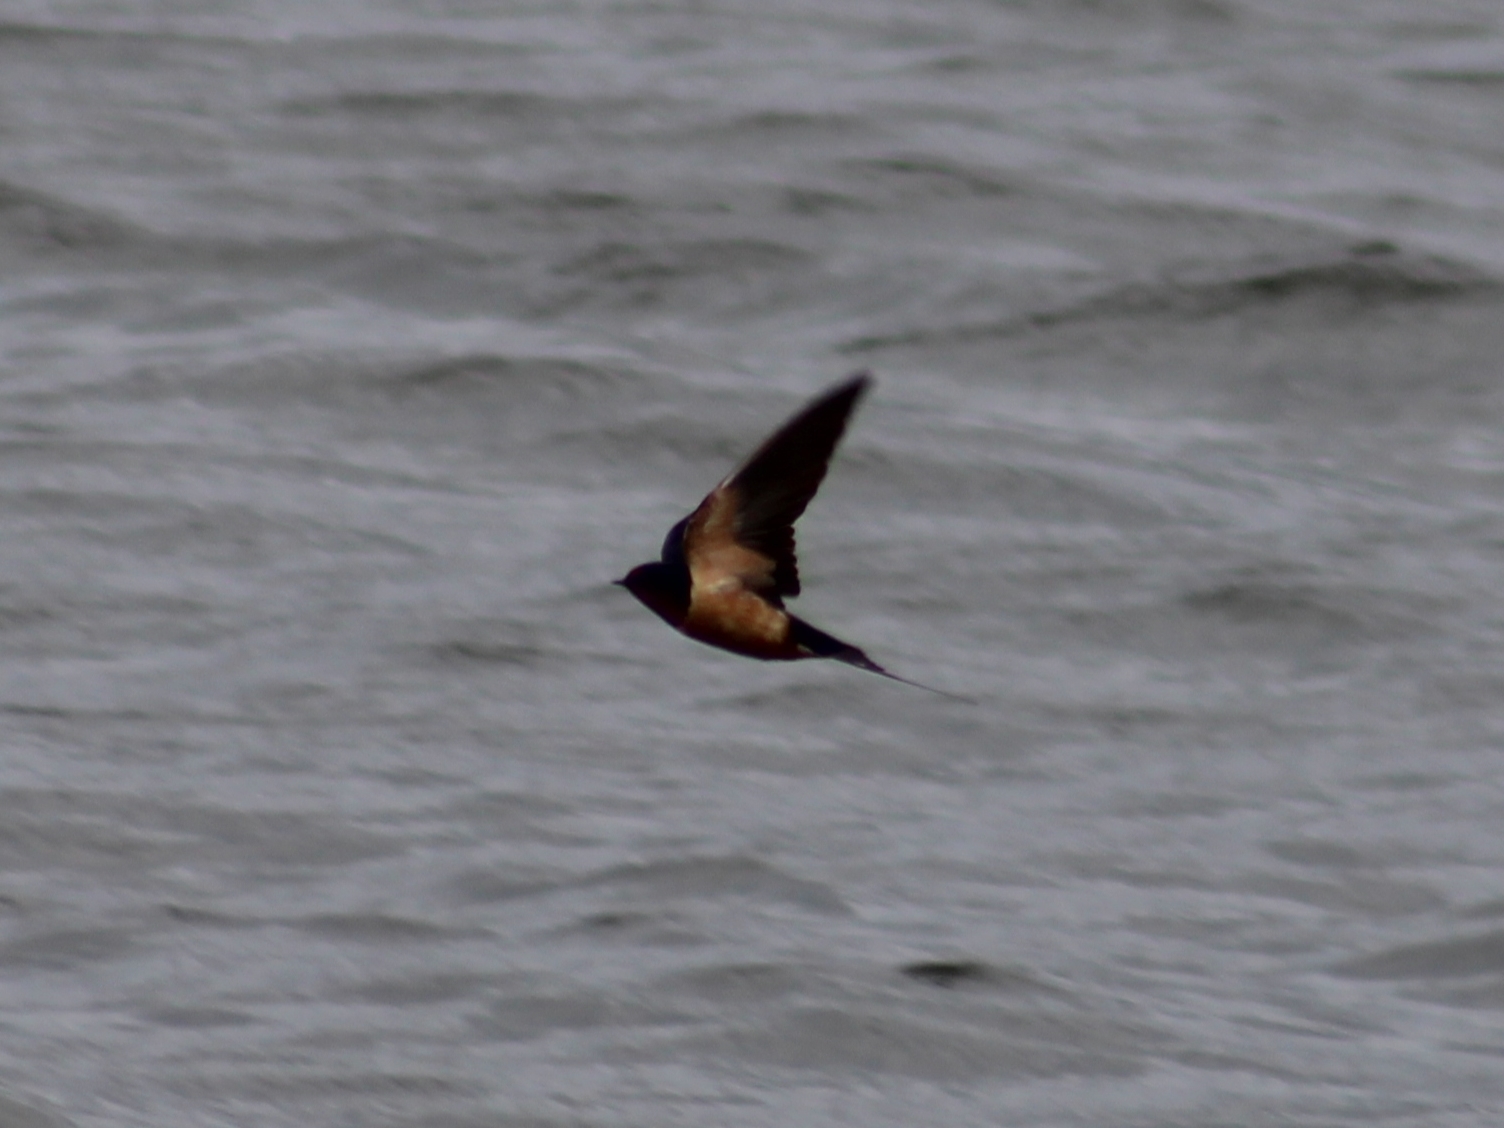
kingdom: Animalia
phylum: Chordata
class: Aves
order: Passeriformes
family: Hirundinidae
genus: Hirundo
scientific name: Hirundo rustica
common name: Barn swallow
